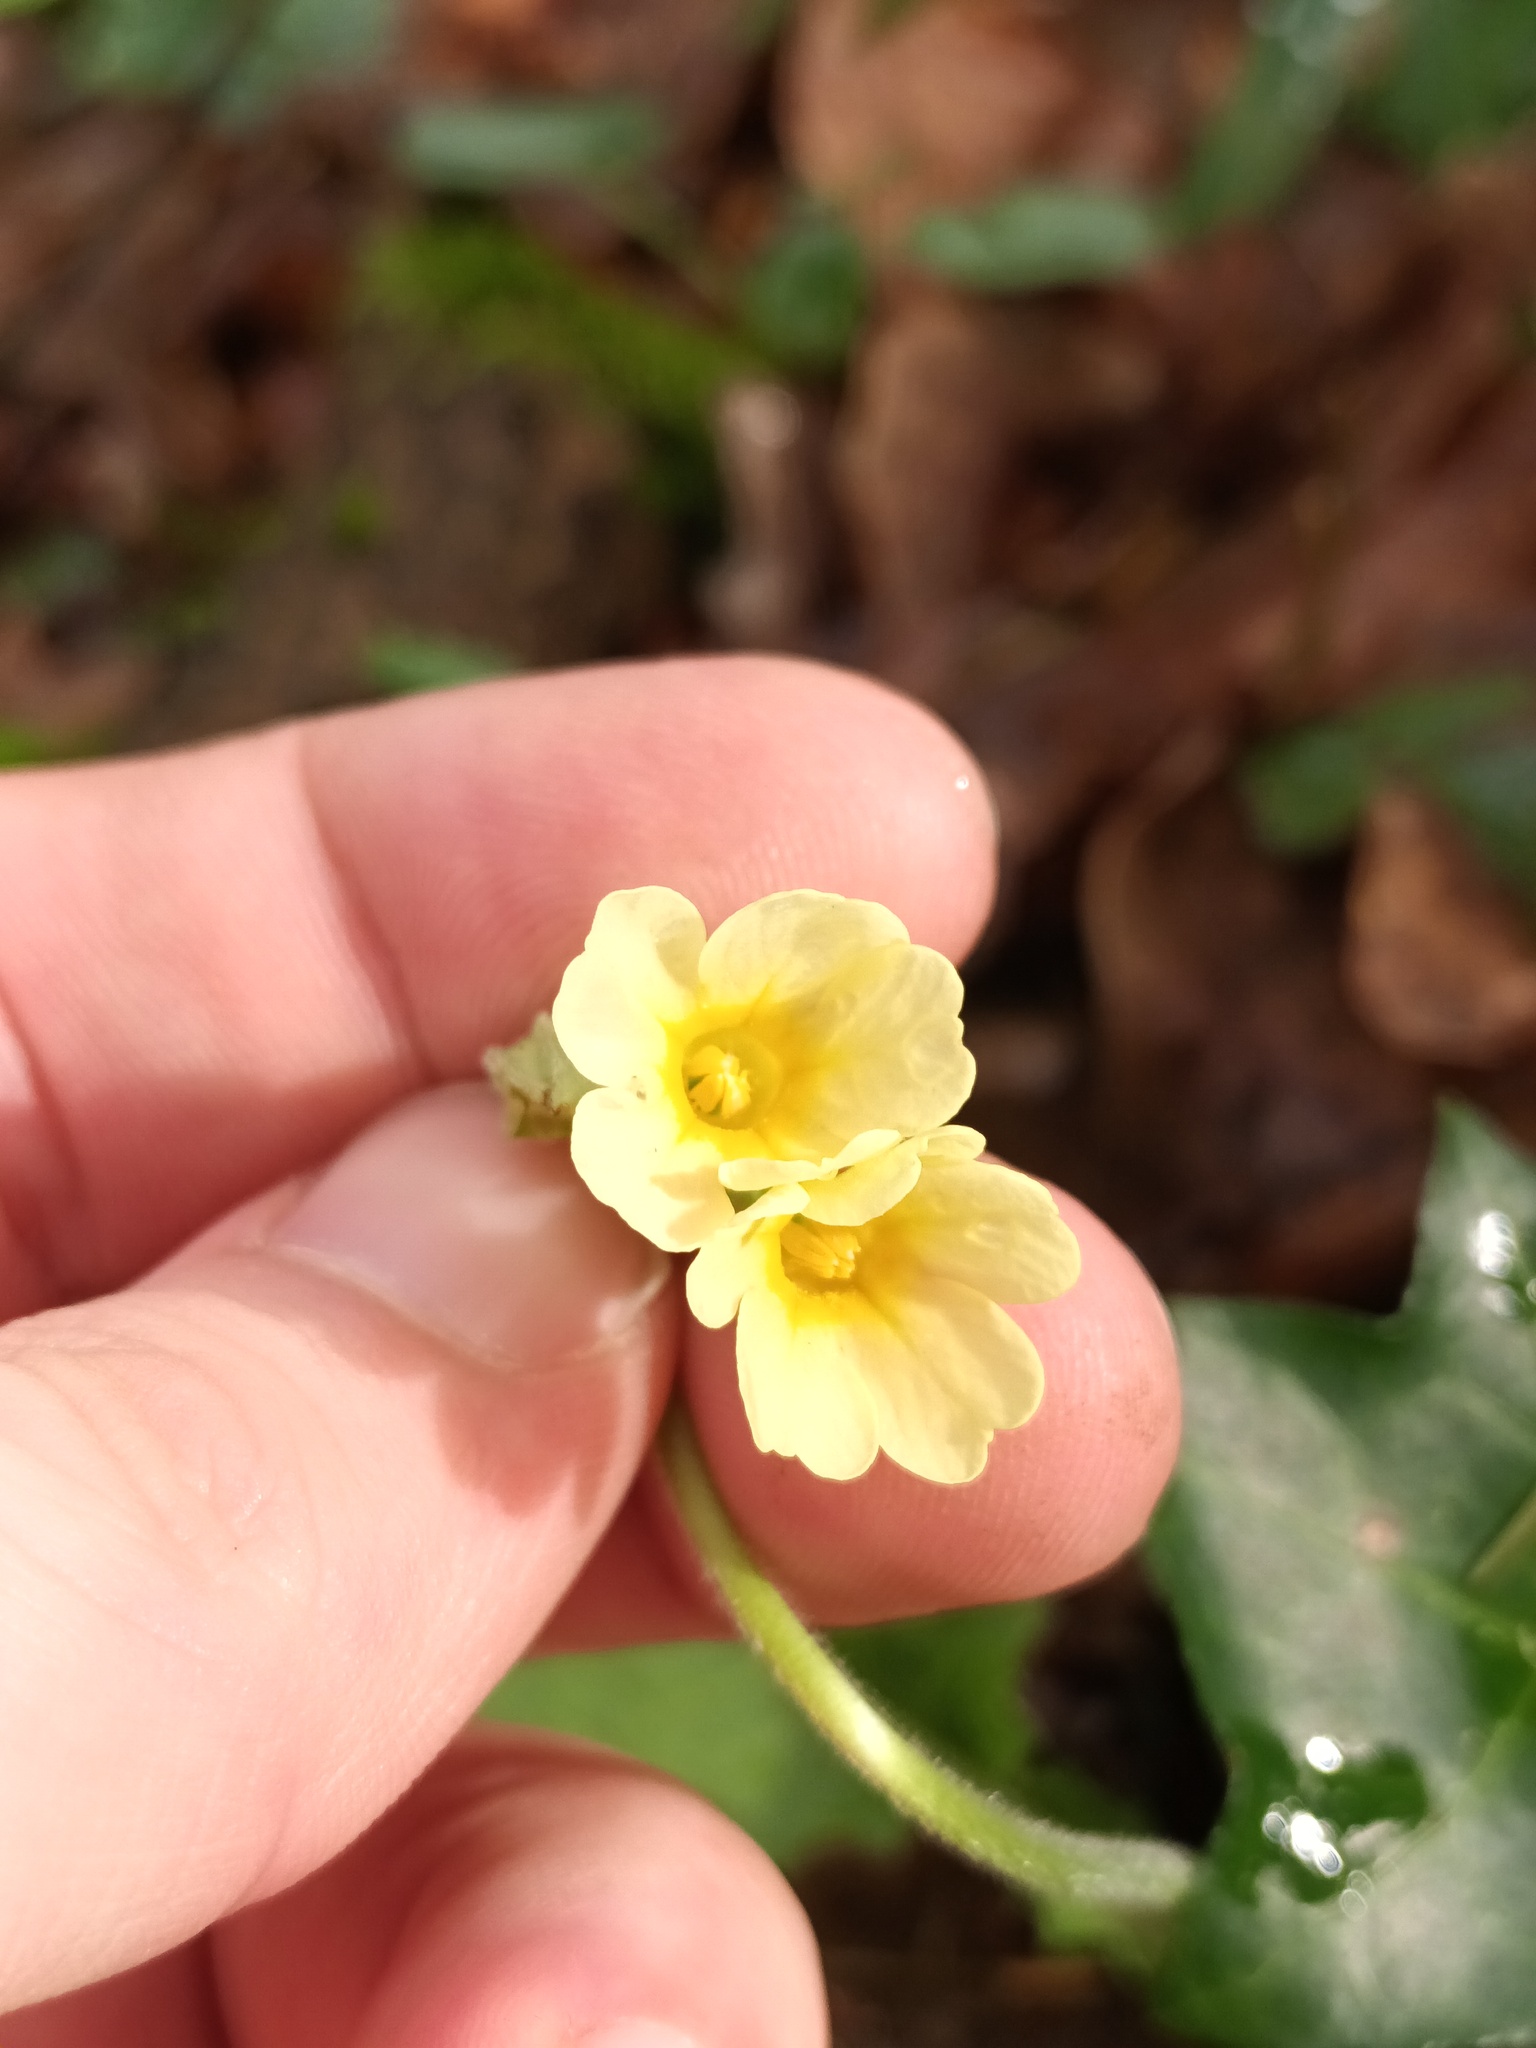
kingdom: Plantae
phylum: Tracheophyta
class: Magnoliopsida
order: Ericales
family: Primulaceae
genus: Primula
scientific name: Primula elatior
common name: Oxlip
